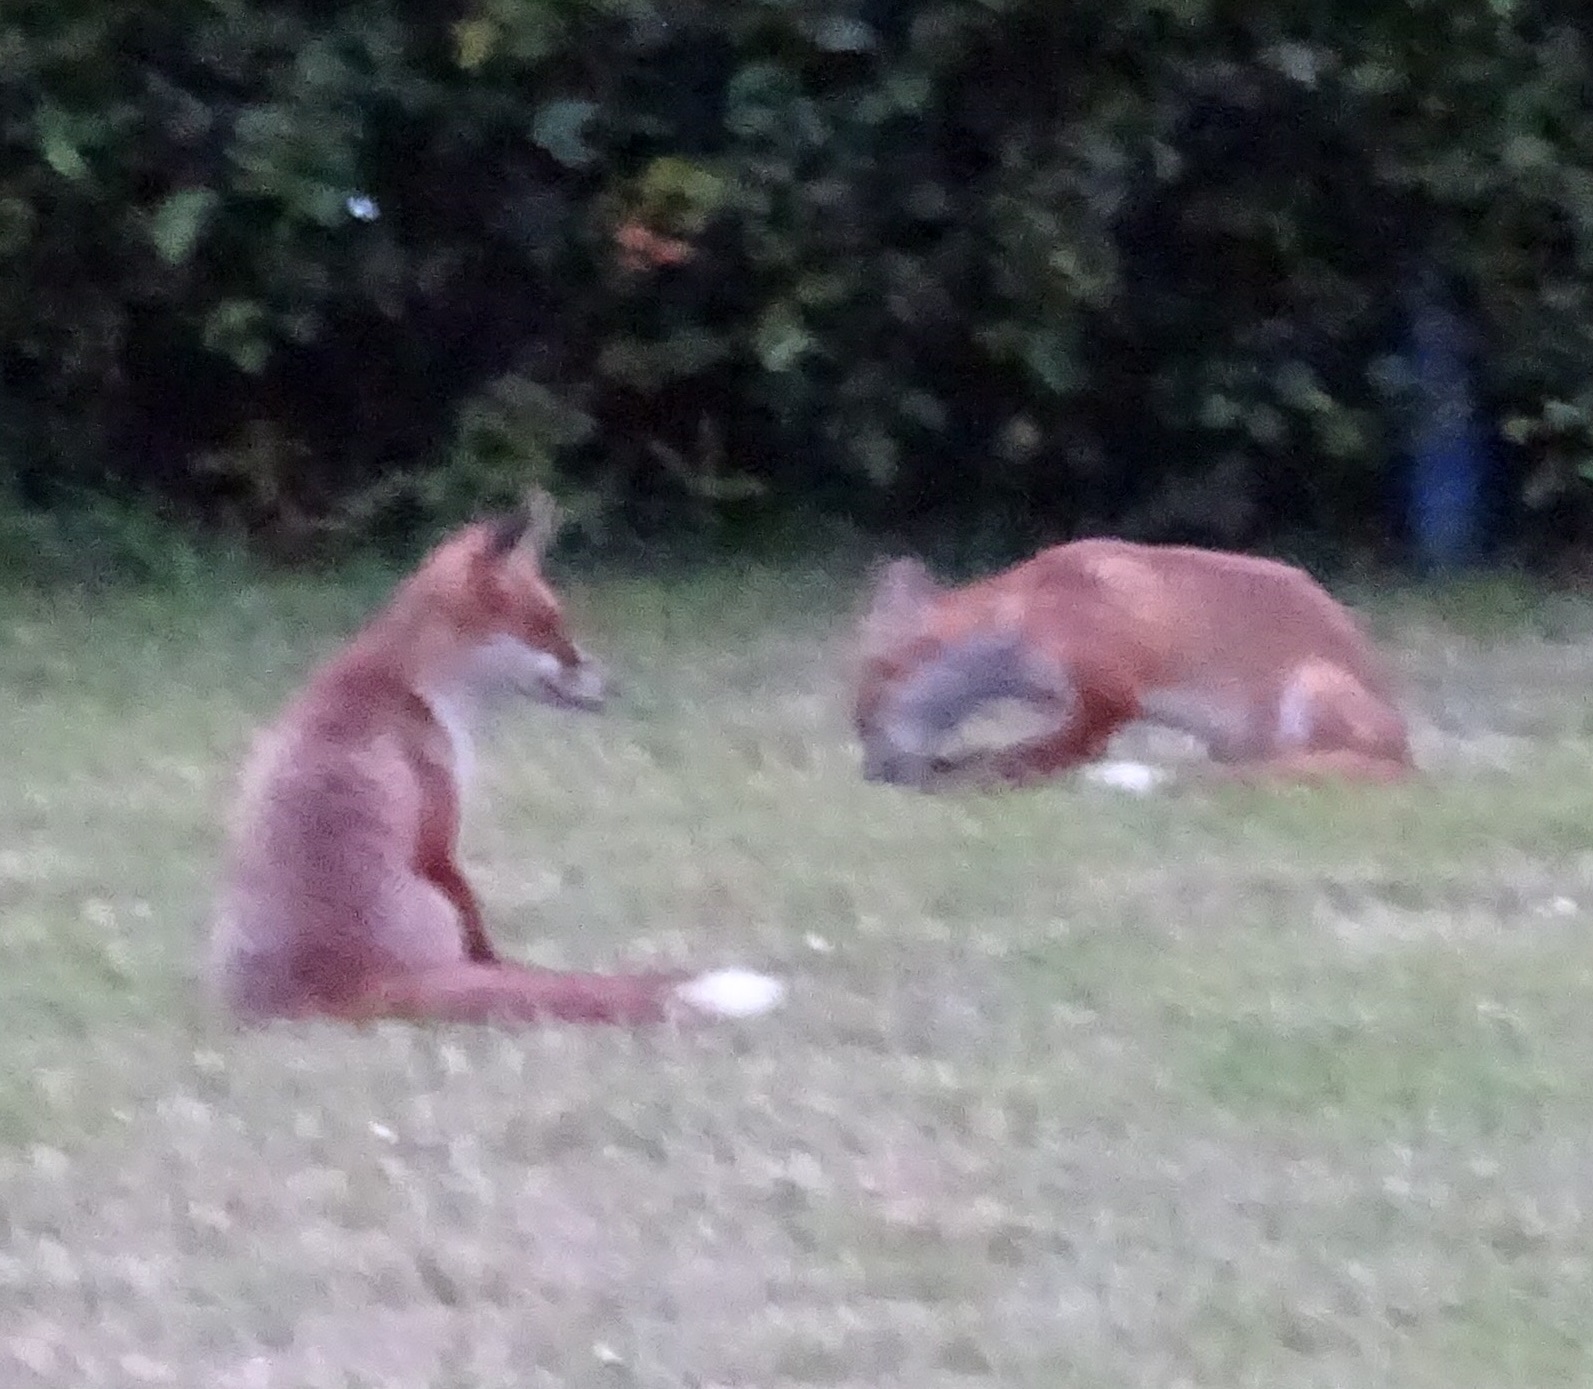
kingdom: Animalia
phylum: Chordata
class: Mammalia
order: Carnivora
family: Canidae
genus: Vulpes
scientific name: Vulpes vulpes
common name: Red fox
